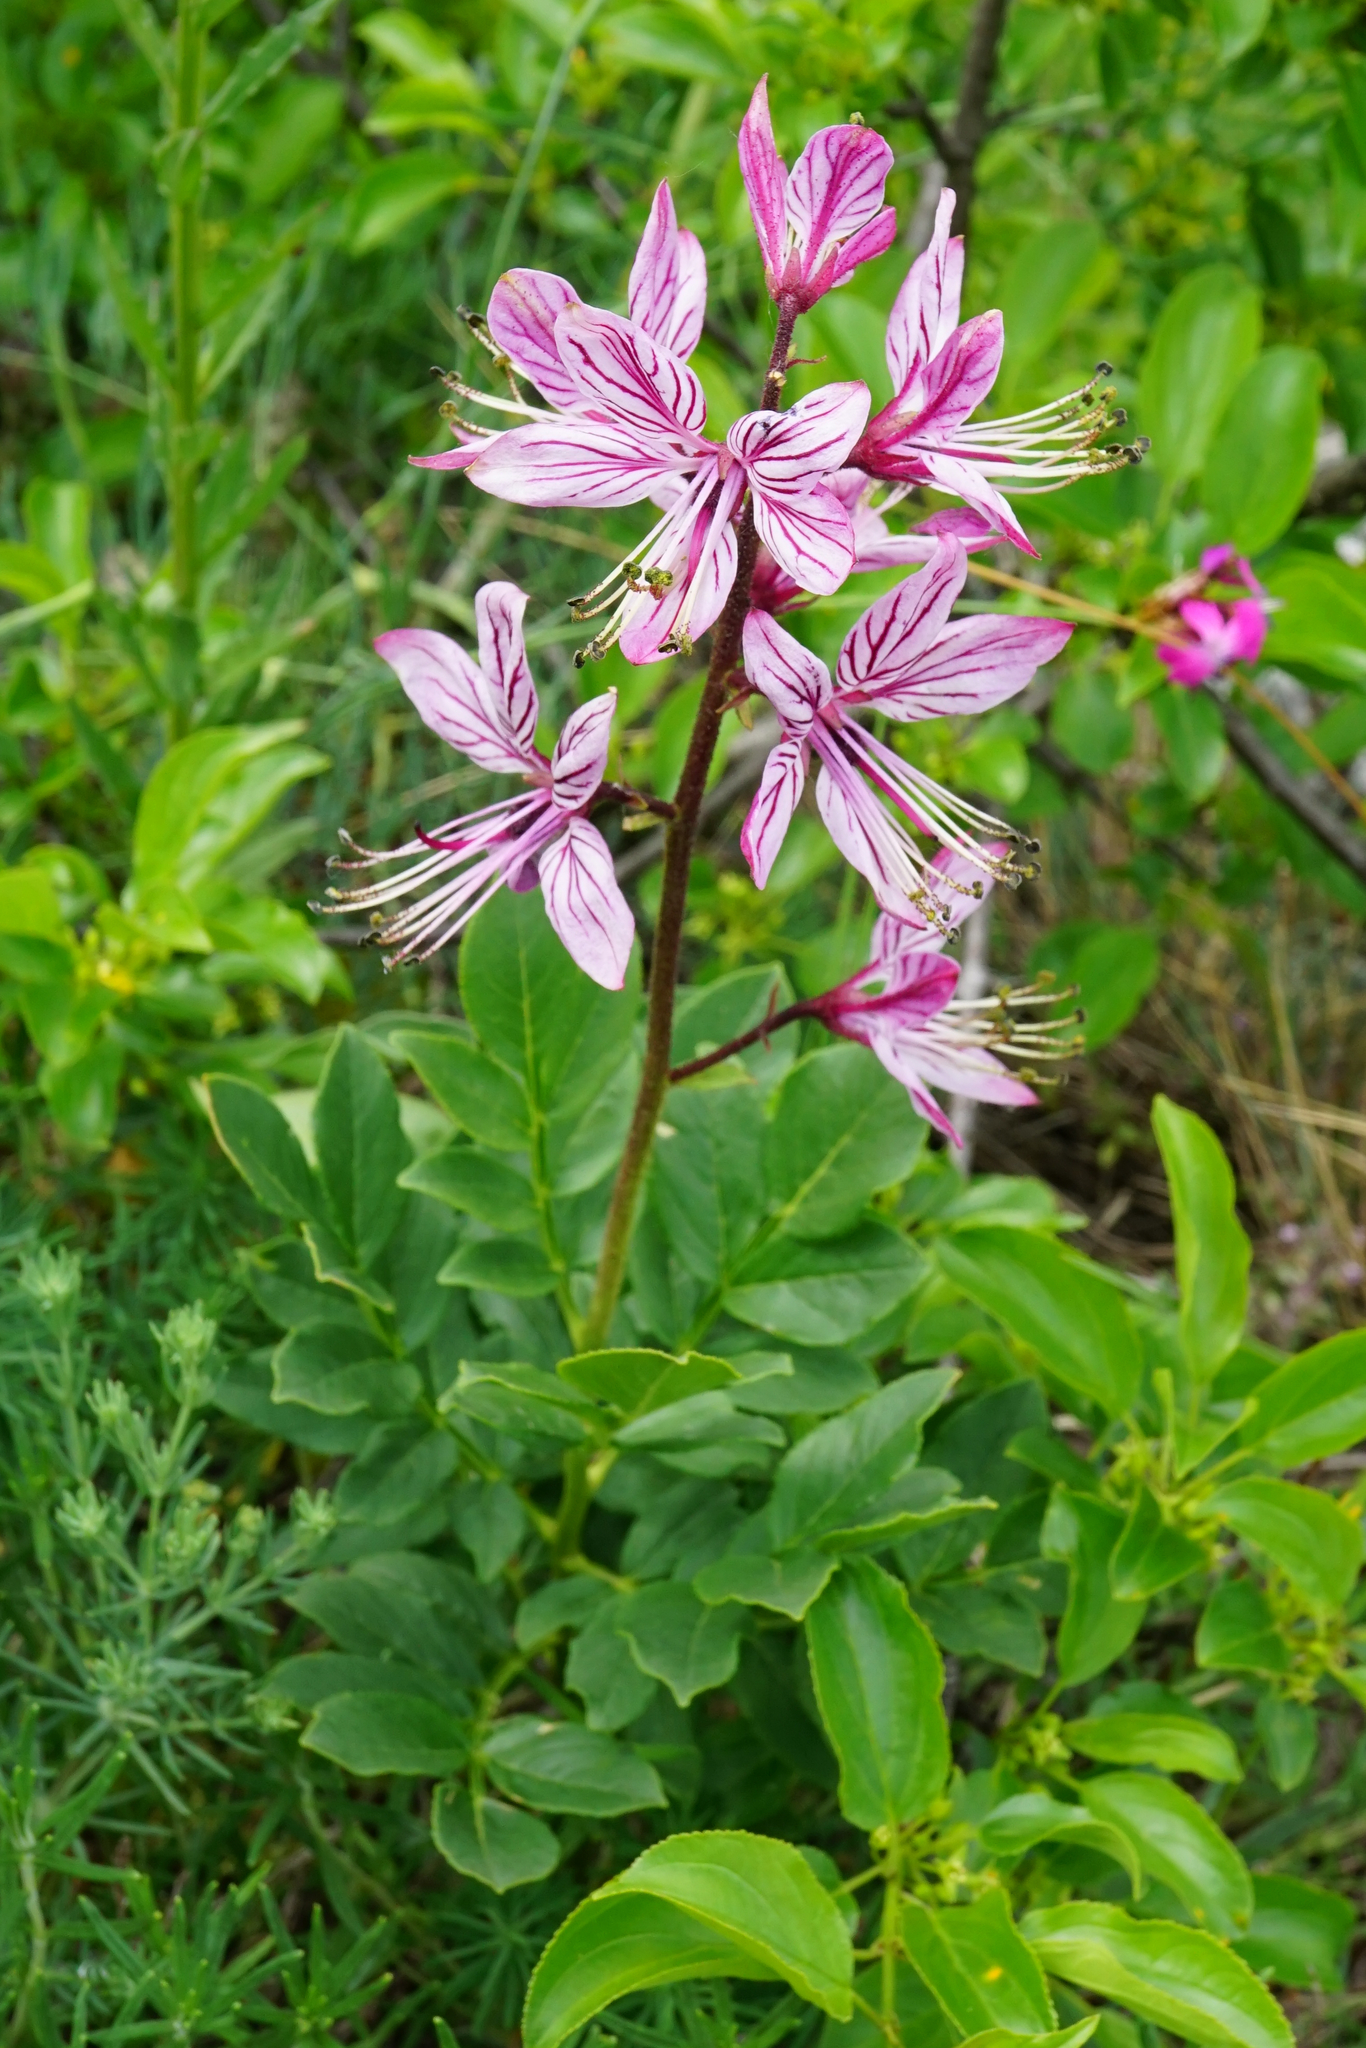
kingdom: Plantae
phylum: Tracheophyta
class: Magnoliopsida
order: Sapindales
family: Rutaceae
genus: Dictamnus
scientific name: Dictamnus albus
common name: Gasplant
